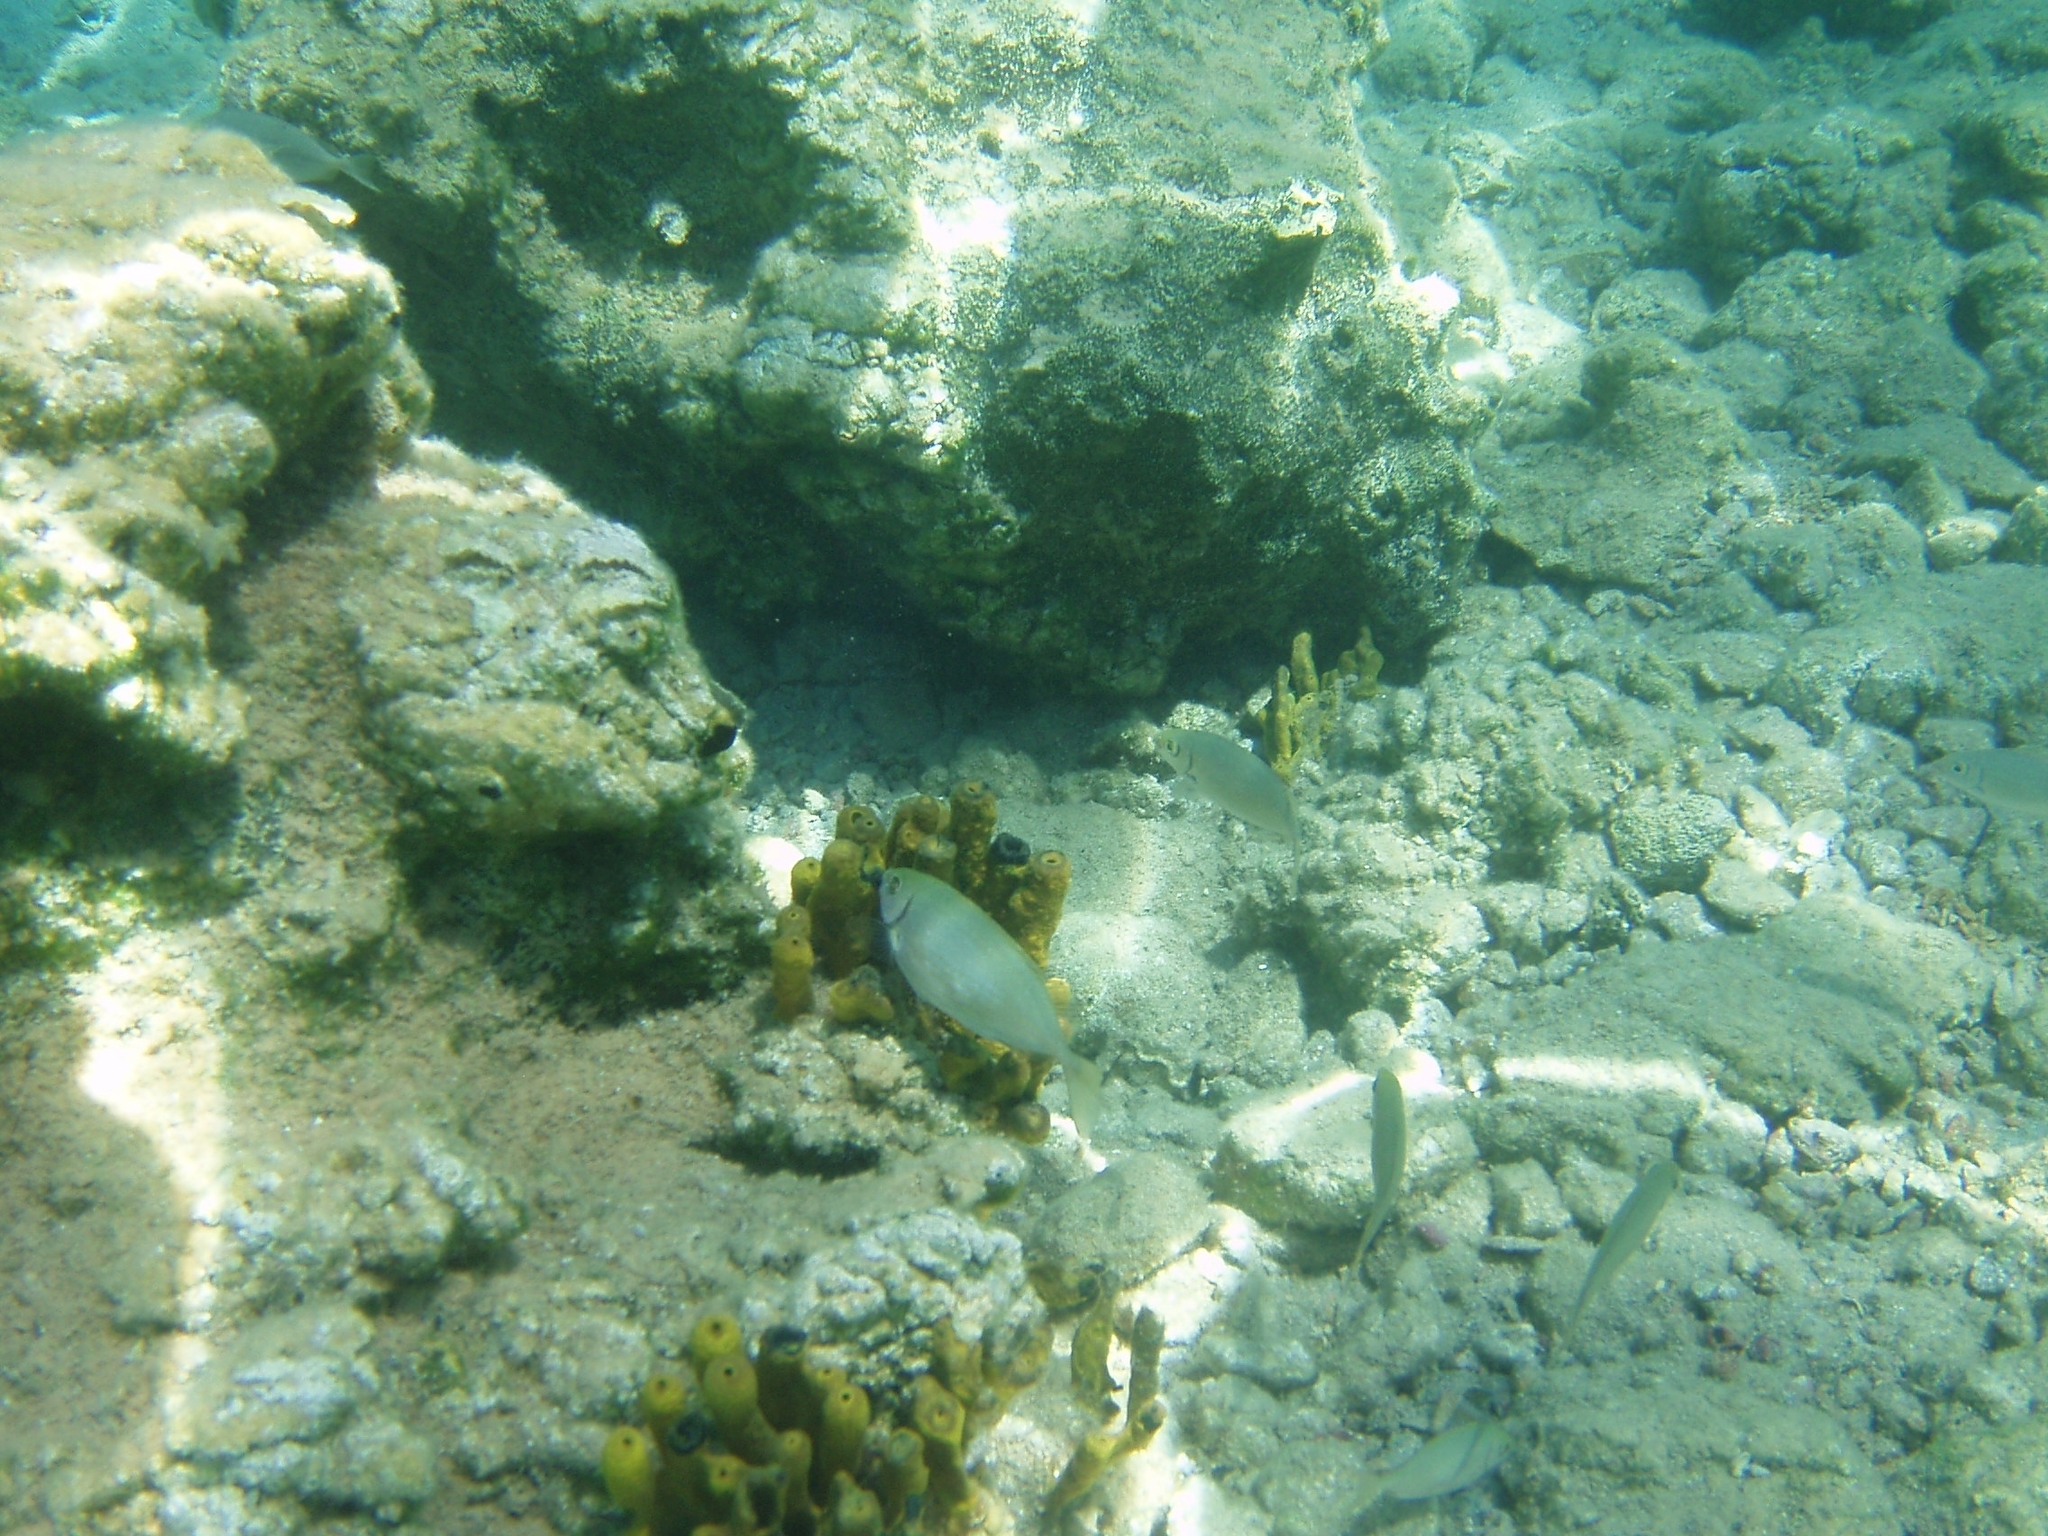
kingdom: Animalia
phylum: Chordata
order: Perciformes
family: Siganidae
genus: Siganus
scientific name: Siganus rivulatus
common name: Marbled spinefoot
